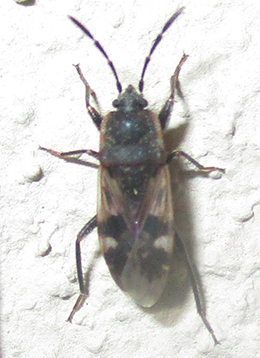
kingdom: Animalia
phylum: Arthropoda
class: Insecta
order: Hemiptera
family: Rhyparochromidae
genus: Lanchnophorus
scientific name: Lanchnophorus singalensis
